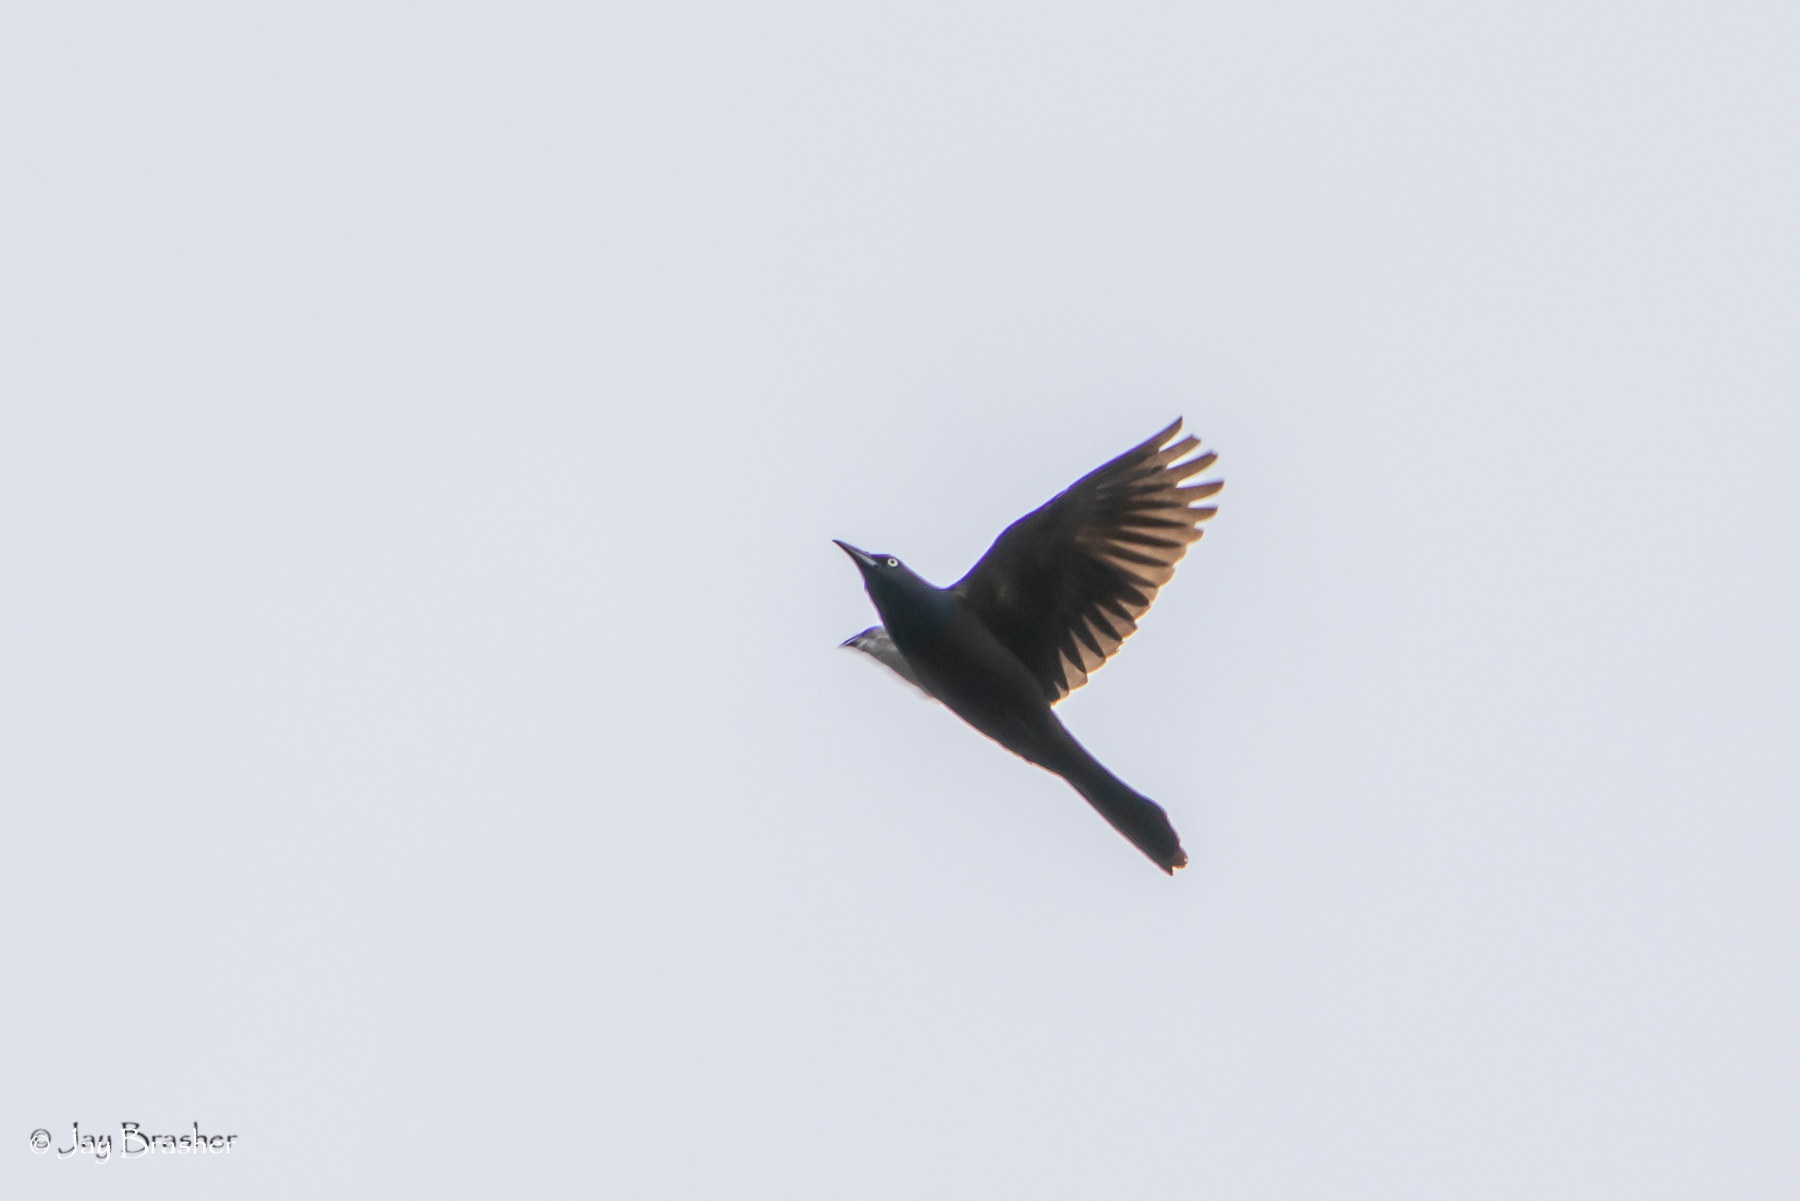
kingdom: Animalia
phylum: Chordata
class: Aves
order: Passeriformes
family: Icteridae
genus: Quiscalus
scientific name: Quiscalus quiscula
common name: Common grackle
